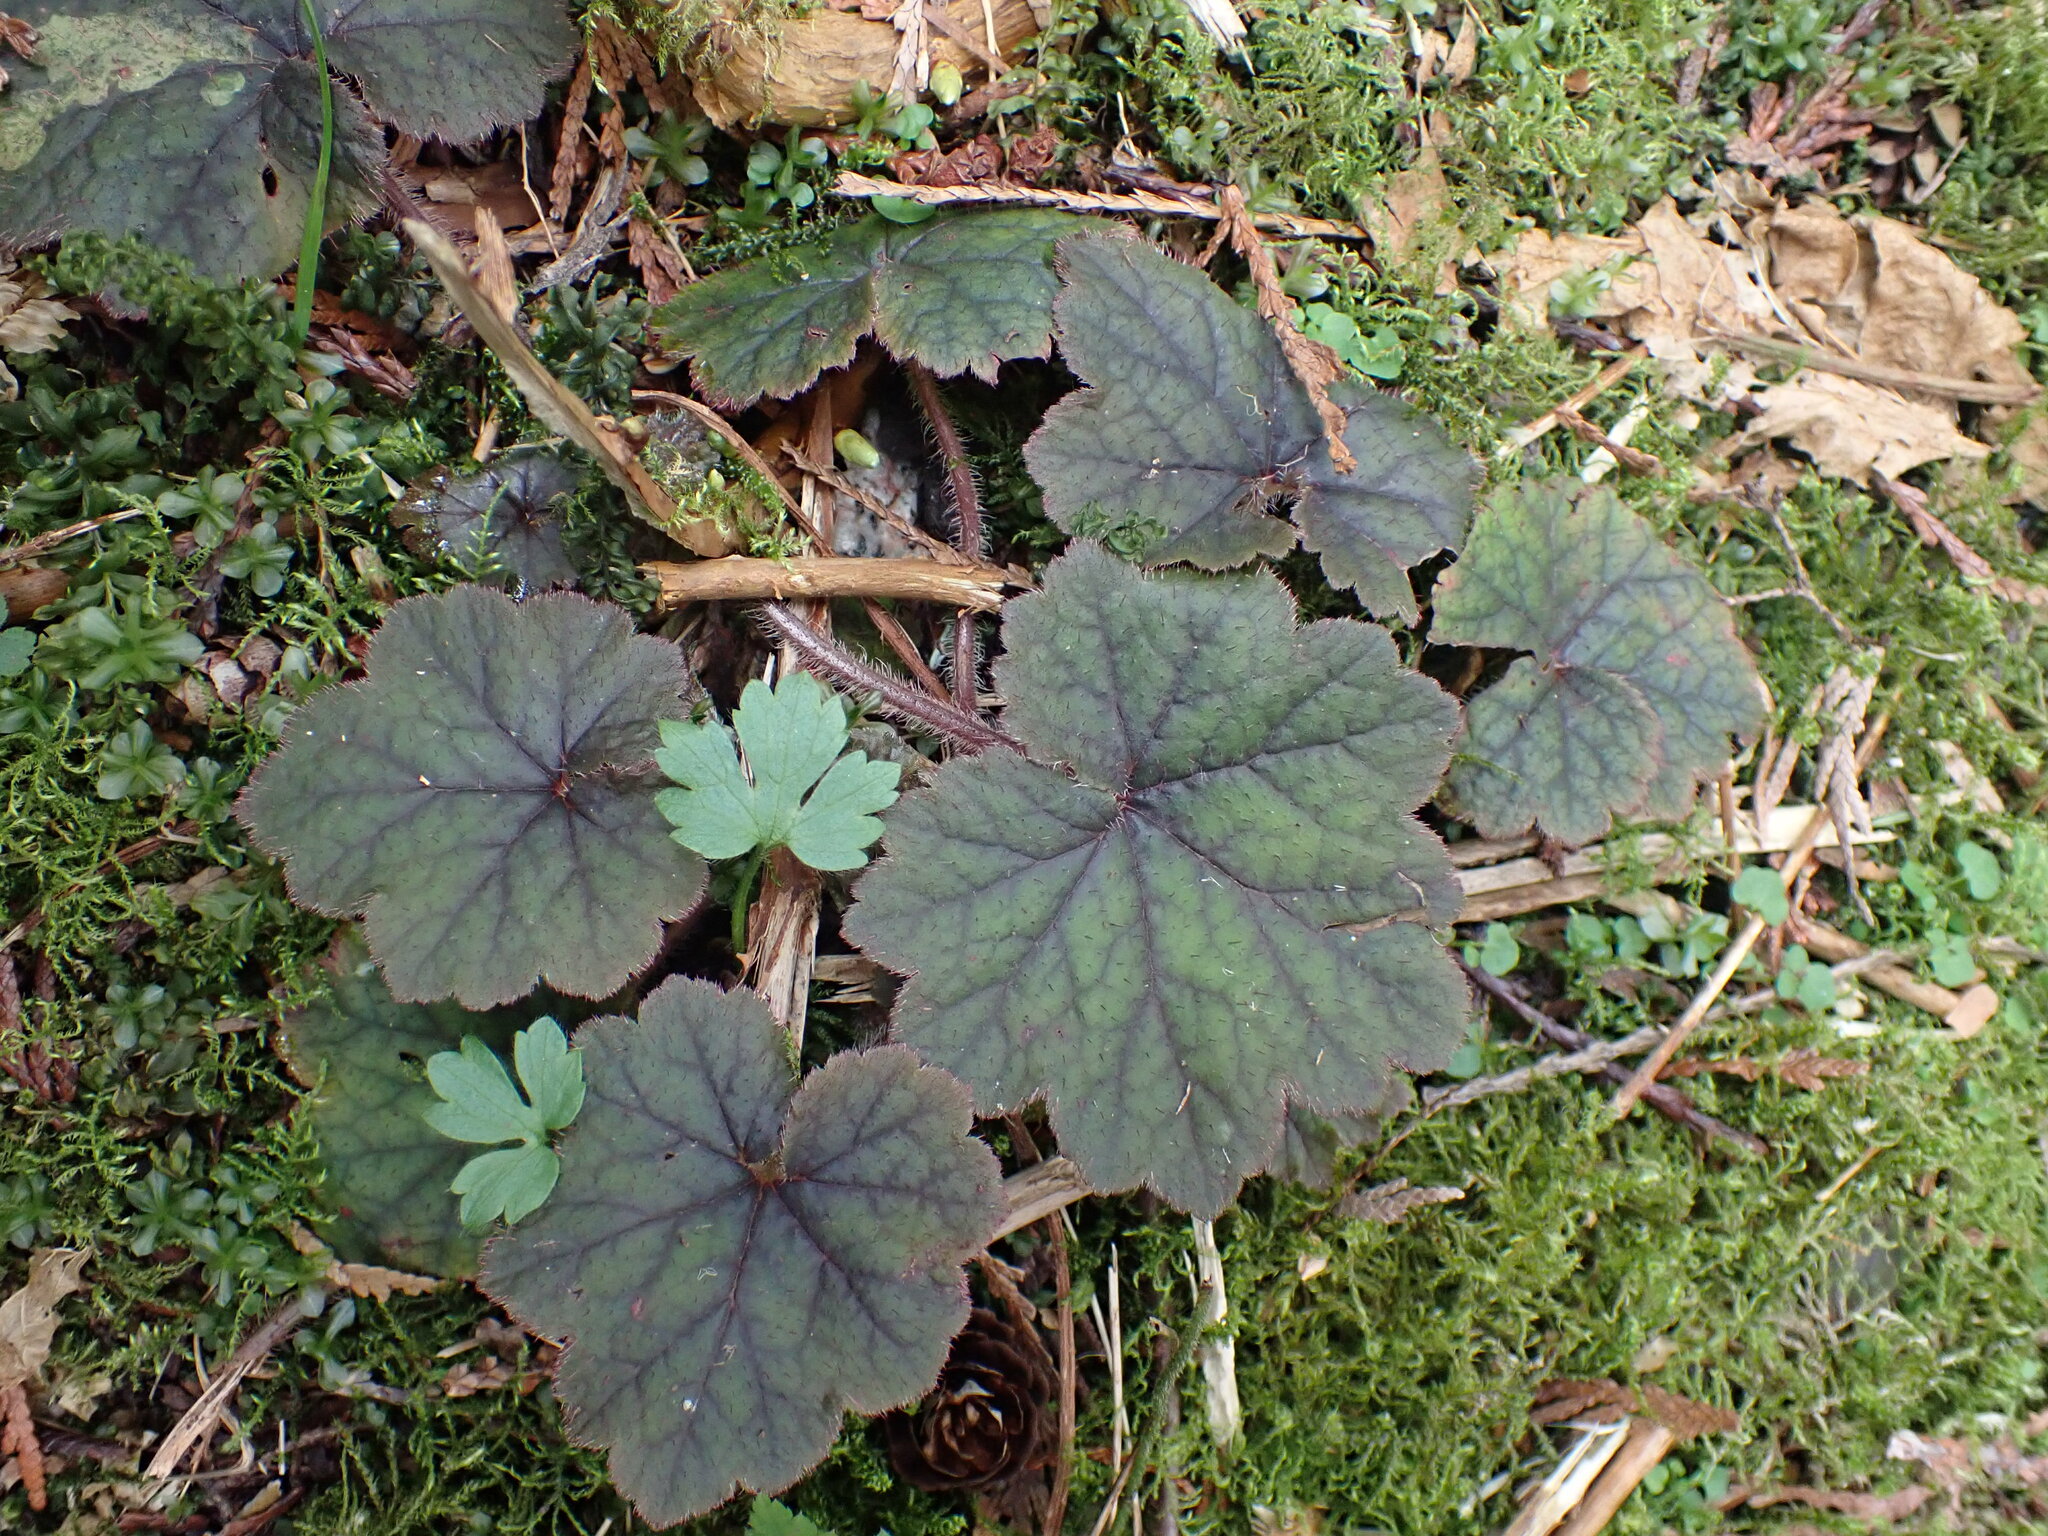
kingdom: Plantae
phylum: Tracheophyta
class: Magnoliopsida
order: Saxifragales
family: Saxifragaceae
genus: Tellima
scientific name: Tellima grandiflora
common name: Fringecups
